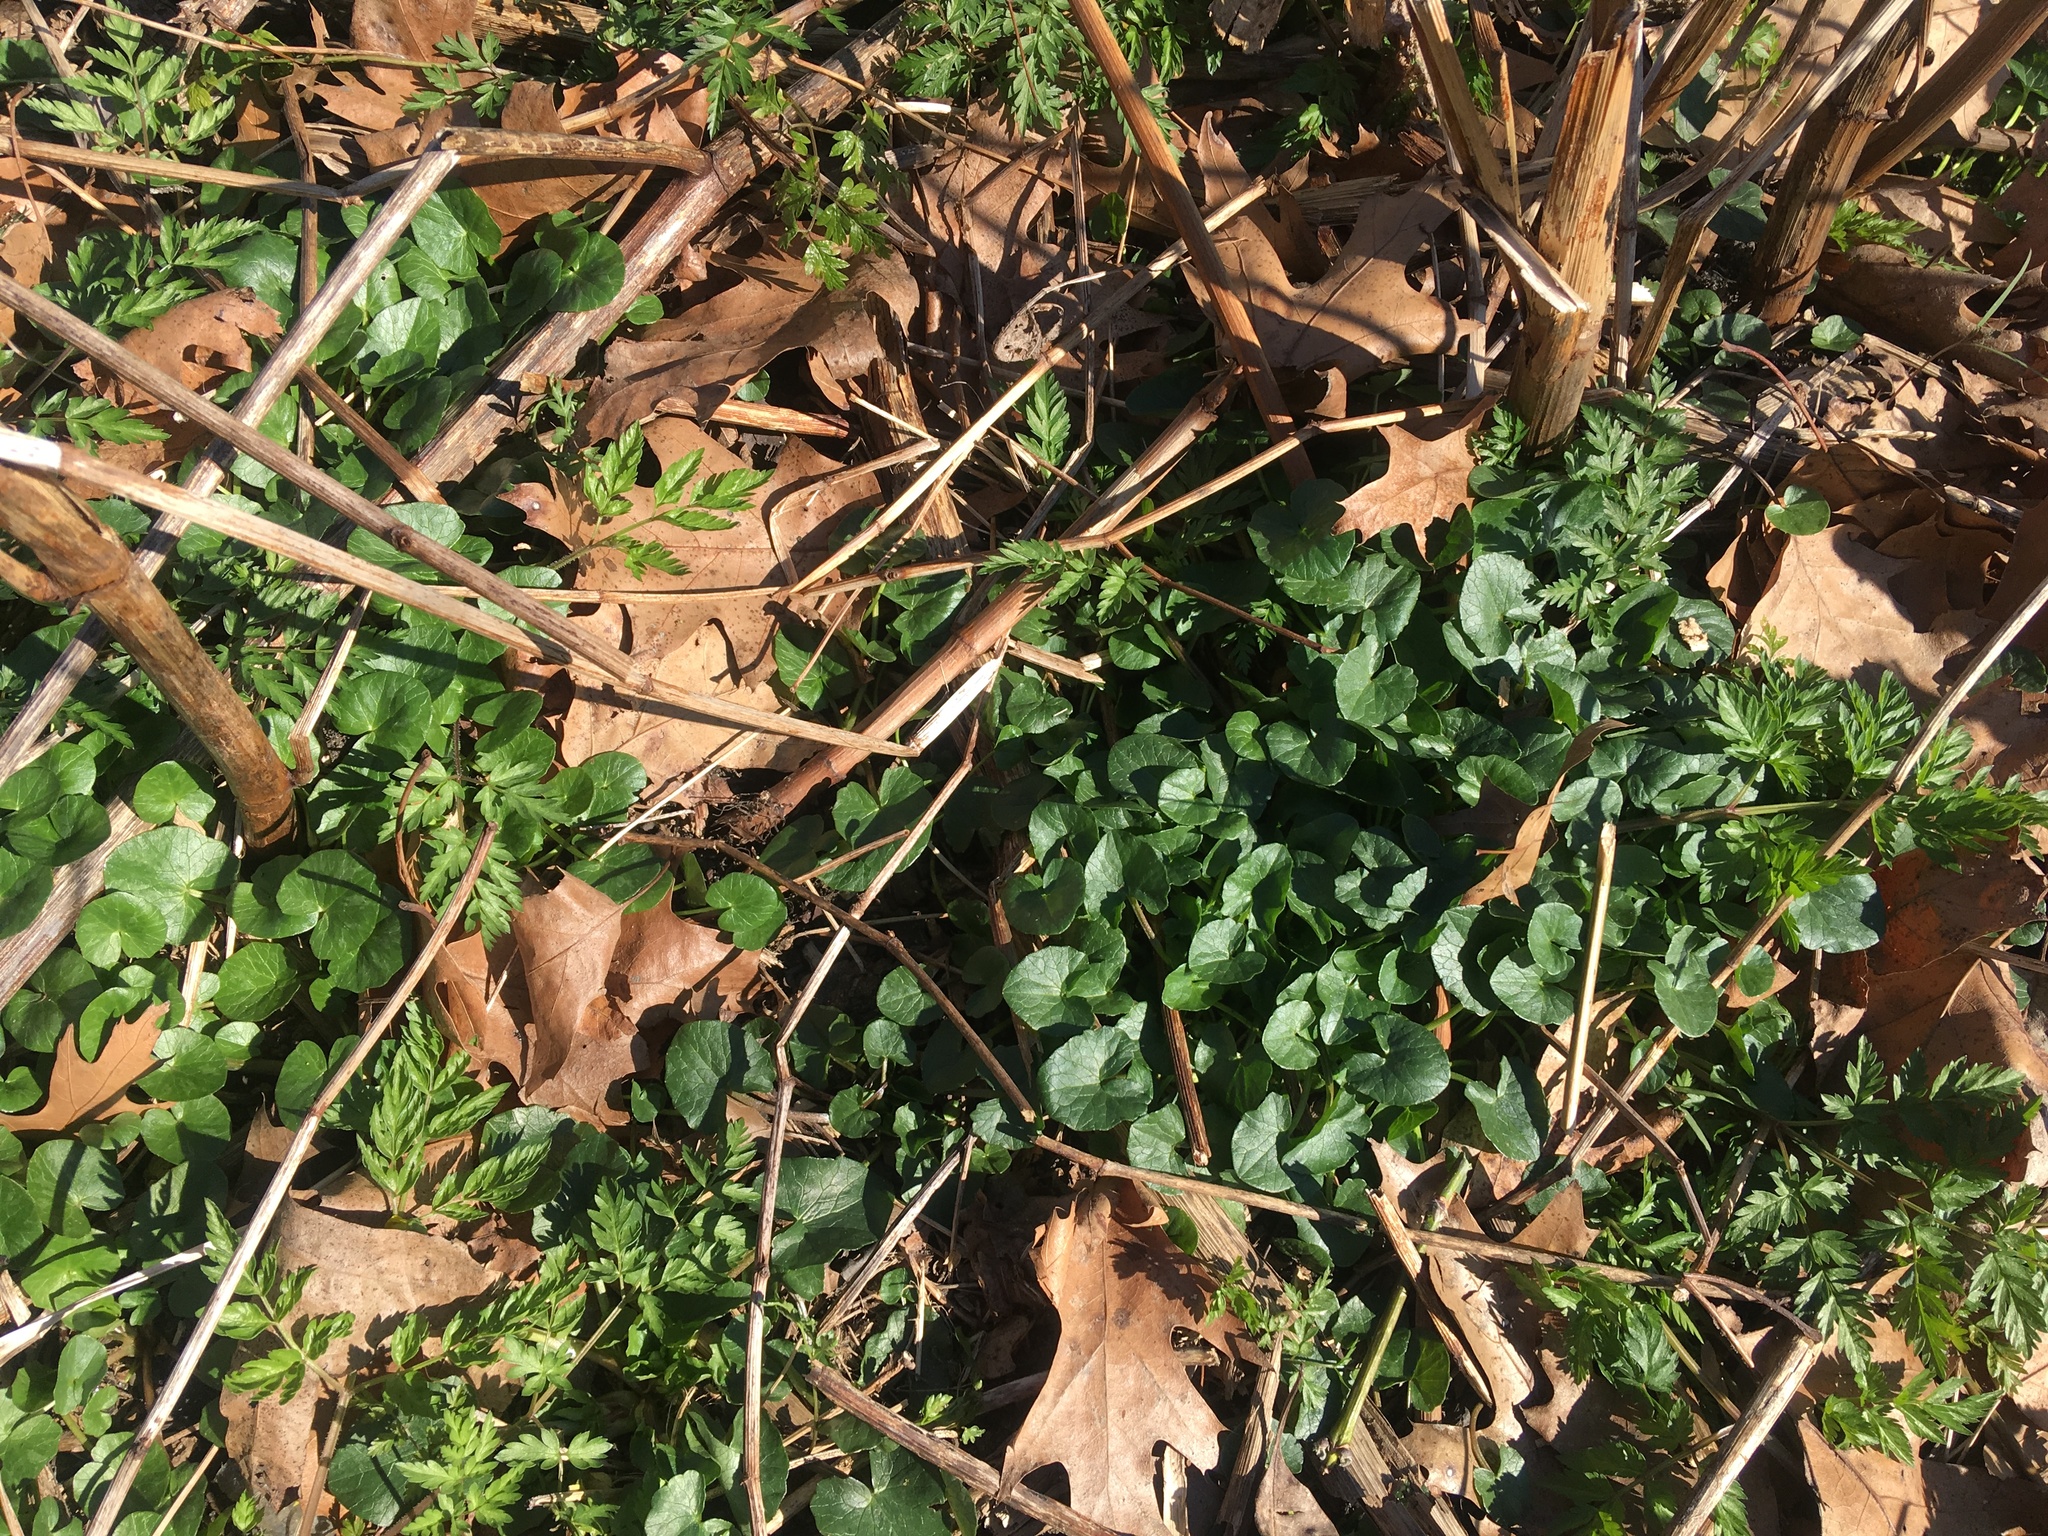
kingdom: Plantae
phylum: Tracheophyta
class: Magnoliopsida
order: Ranunculales
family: Ranunculaceae
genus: Ficaria
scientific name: Ficaria verna
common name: Lesser celandine
